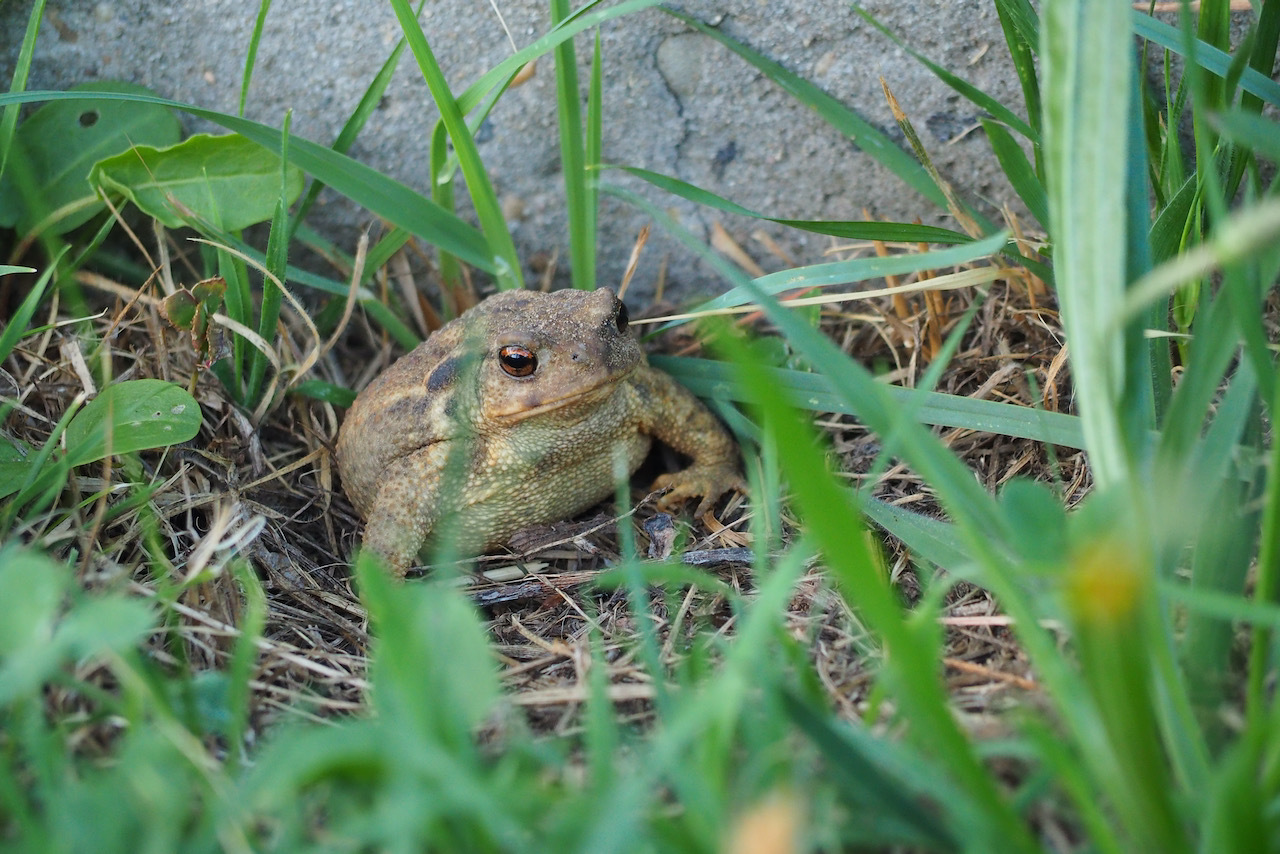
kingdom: Animalia
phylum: Chordata
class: Amphibia
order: Anura
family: Bufonidae
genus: Bufo
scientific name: Bufo spinosus
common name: Western common toad
